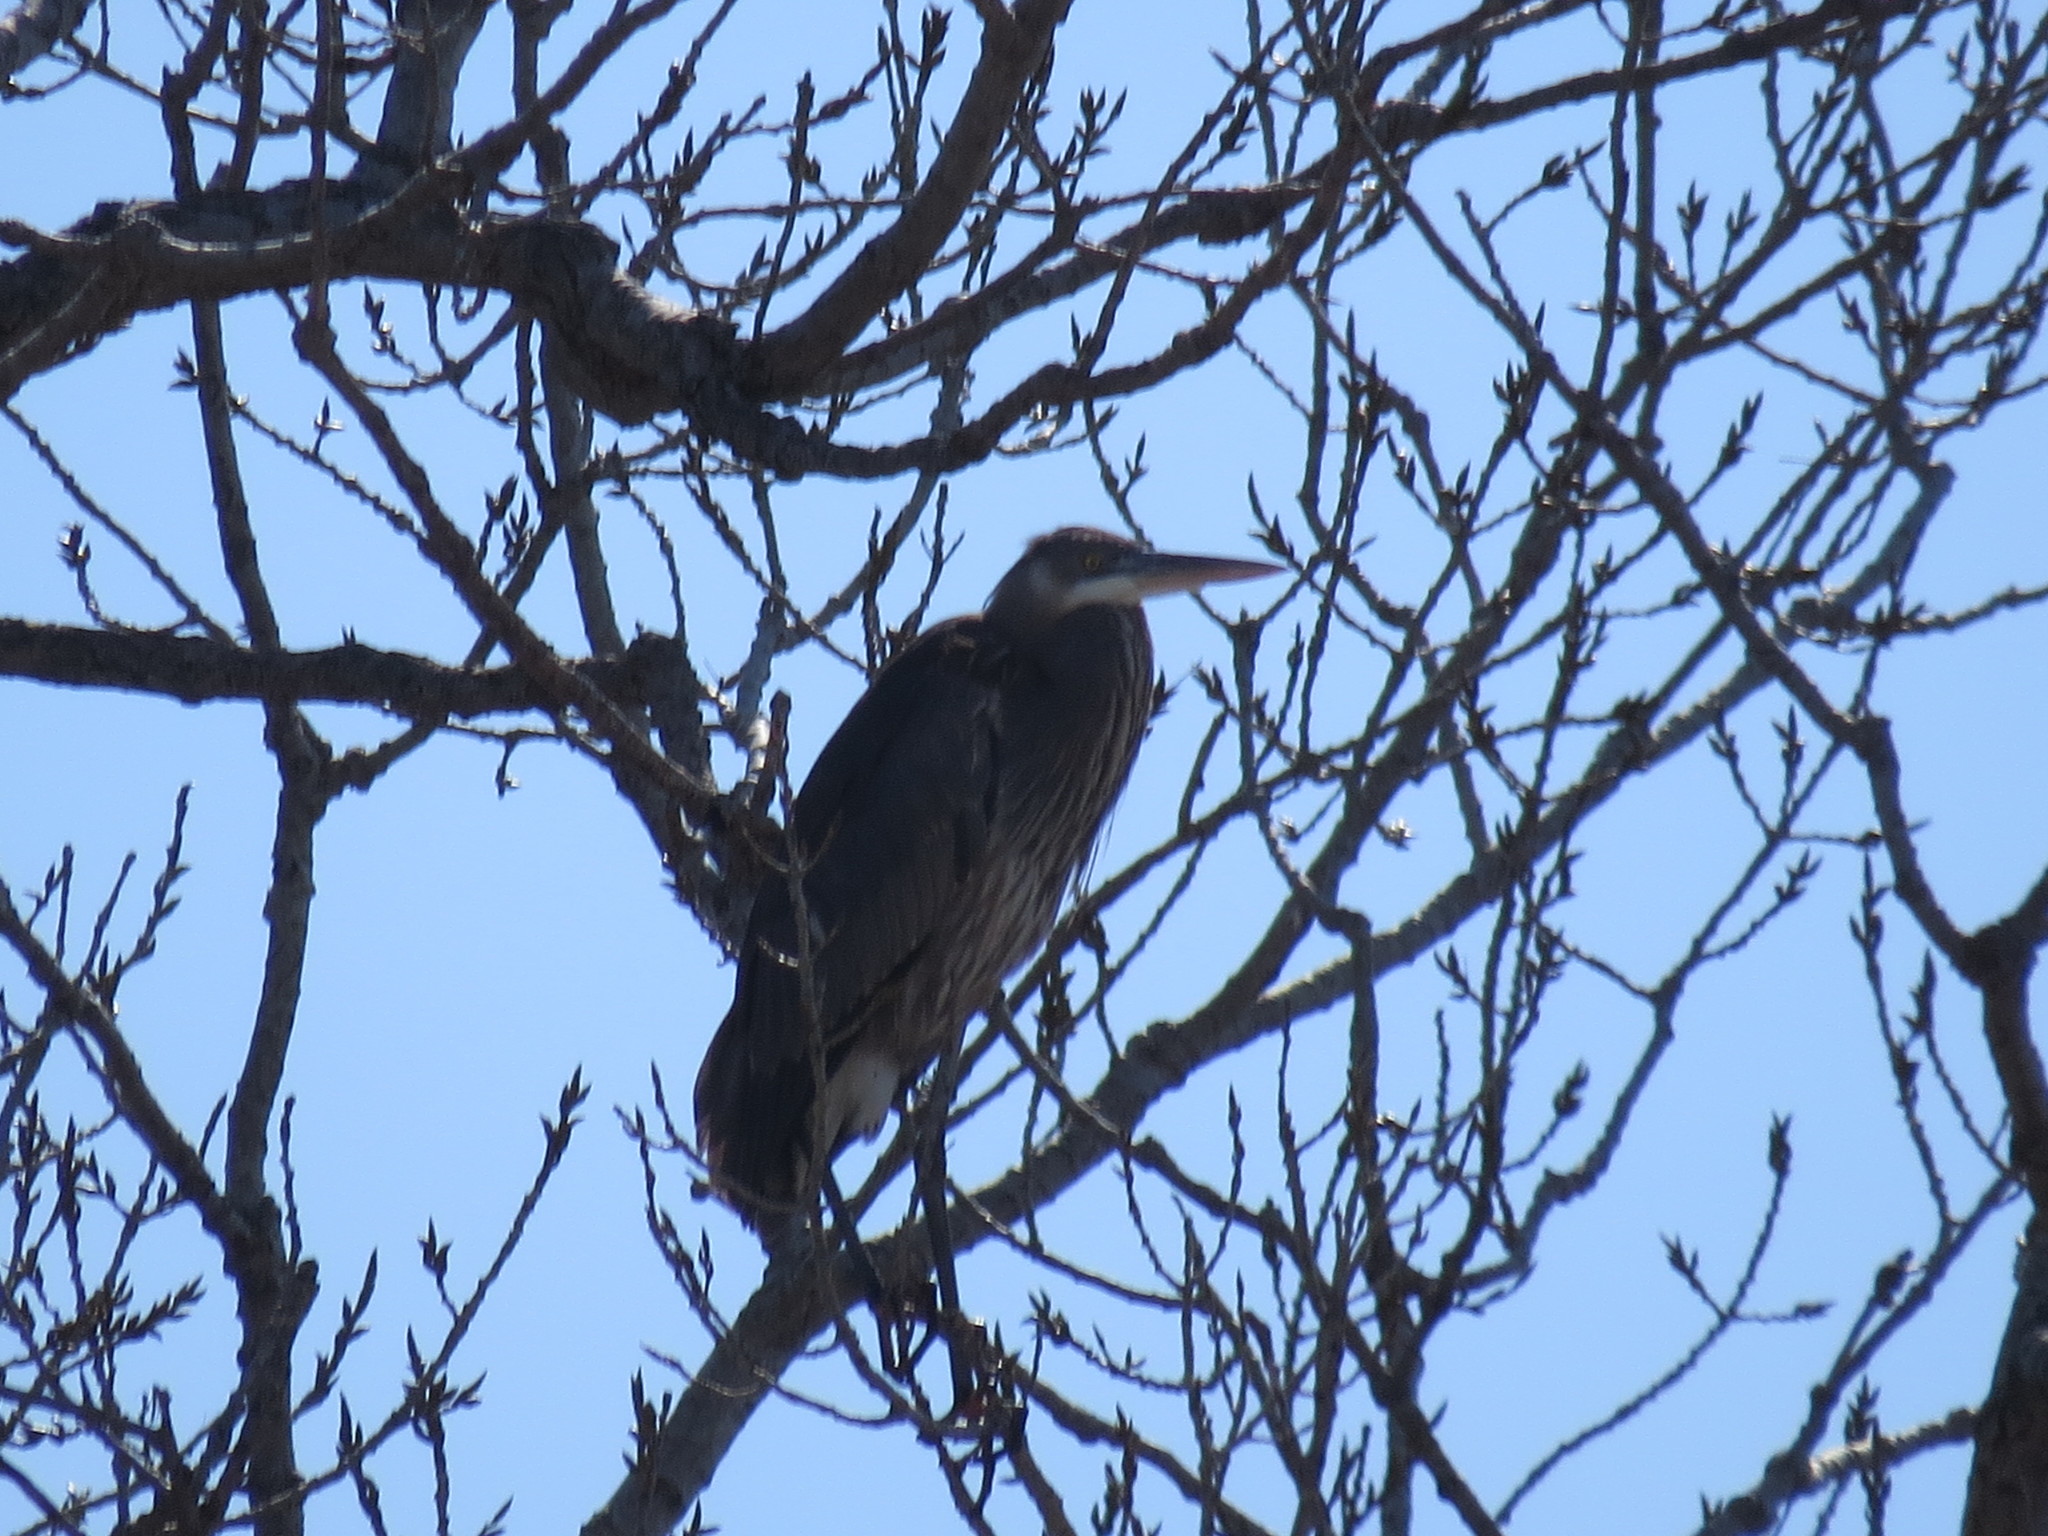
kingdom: Animalia
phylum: Chordata
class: Aves
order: Pelecaniformes
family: Ardeidae
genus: Ardea
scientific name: Ardea herodias
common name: Great blue heron
